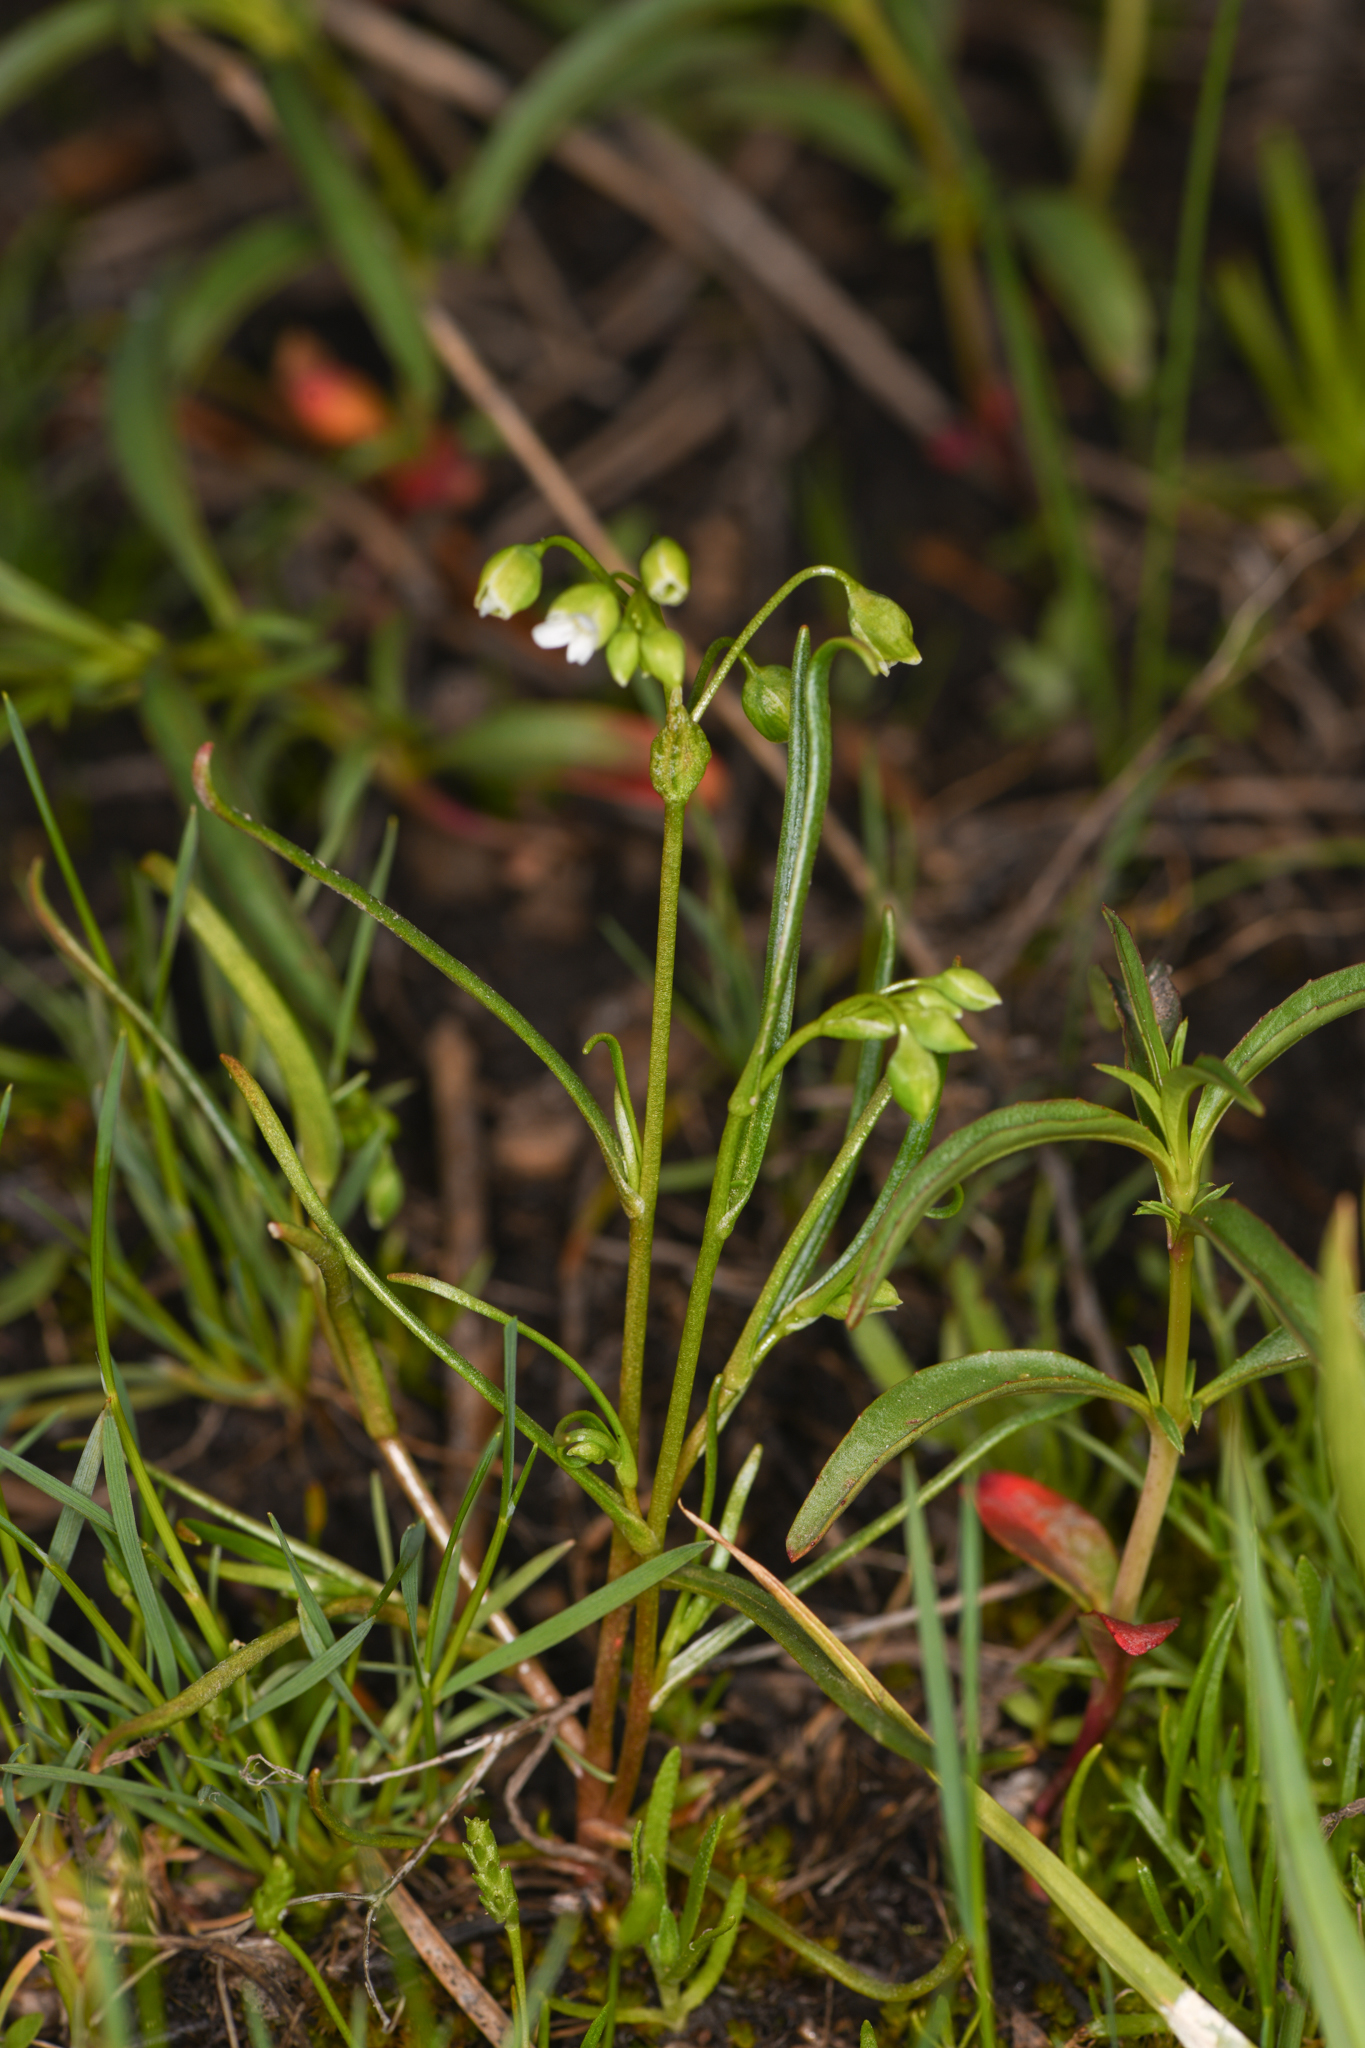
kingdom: Plantae
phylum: Tracheophyta
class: Magnoliopsida
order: Caryophyllales
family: Montiaceae
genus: Montia
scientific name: Montia linearis
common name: Narrow-leaf montia
